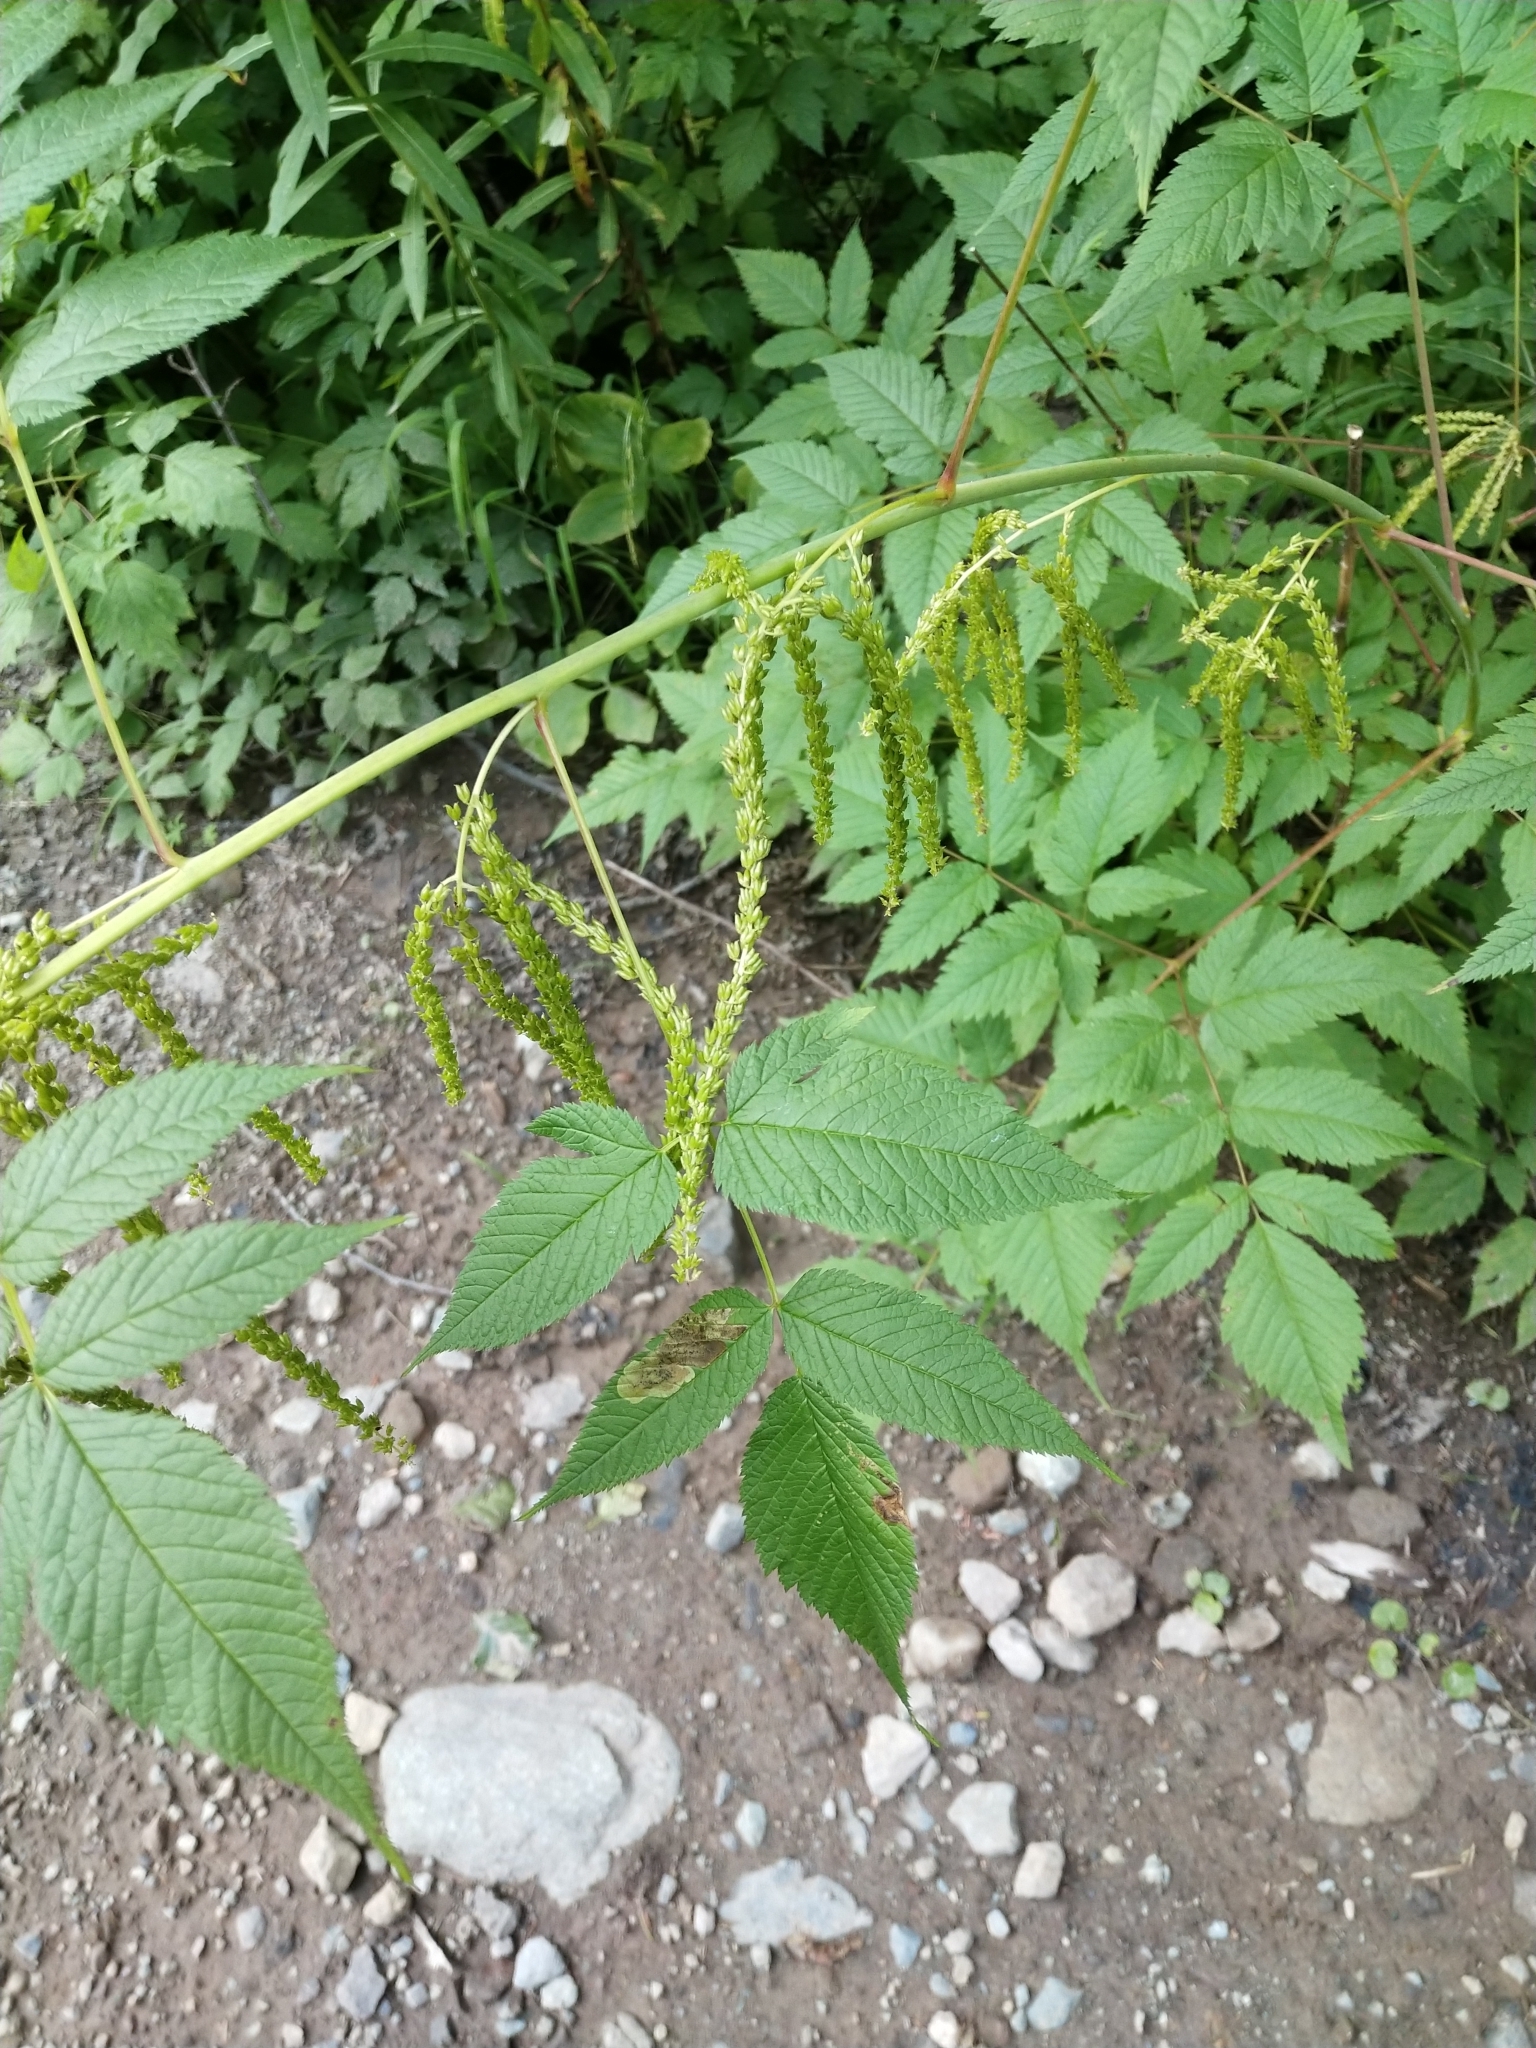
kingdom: Plantae
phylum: Tracheophyta
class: Magnoliopsida
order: Rosales
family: Rosaceae
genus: Aruncus
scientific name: Aruncus dioicus
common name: Buck's-beard
